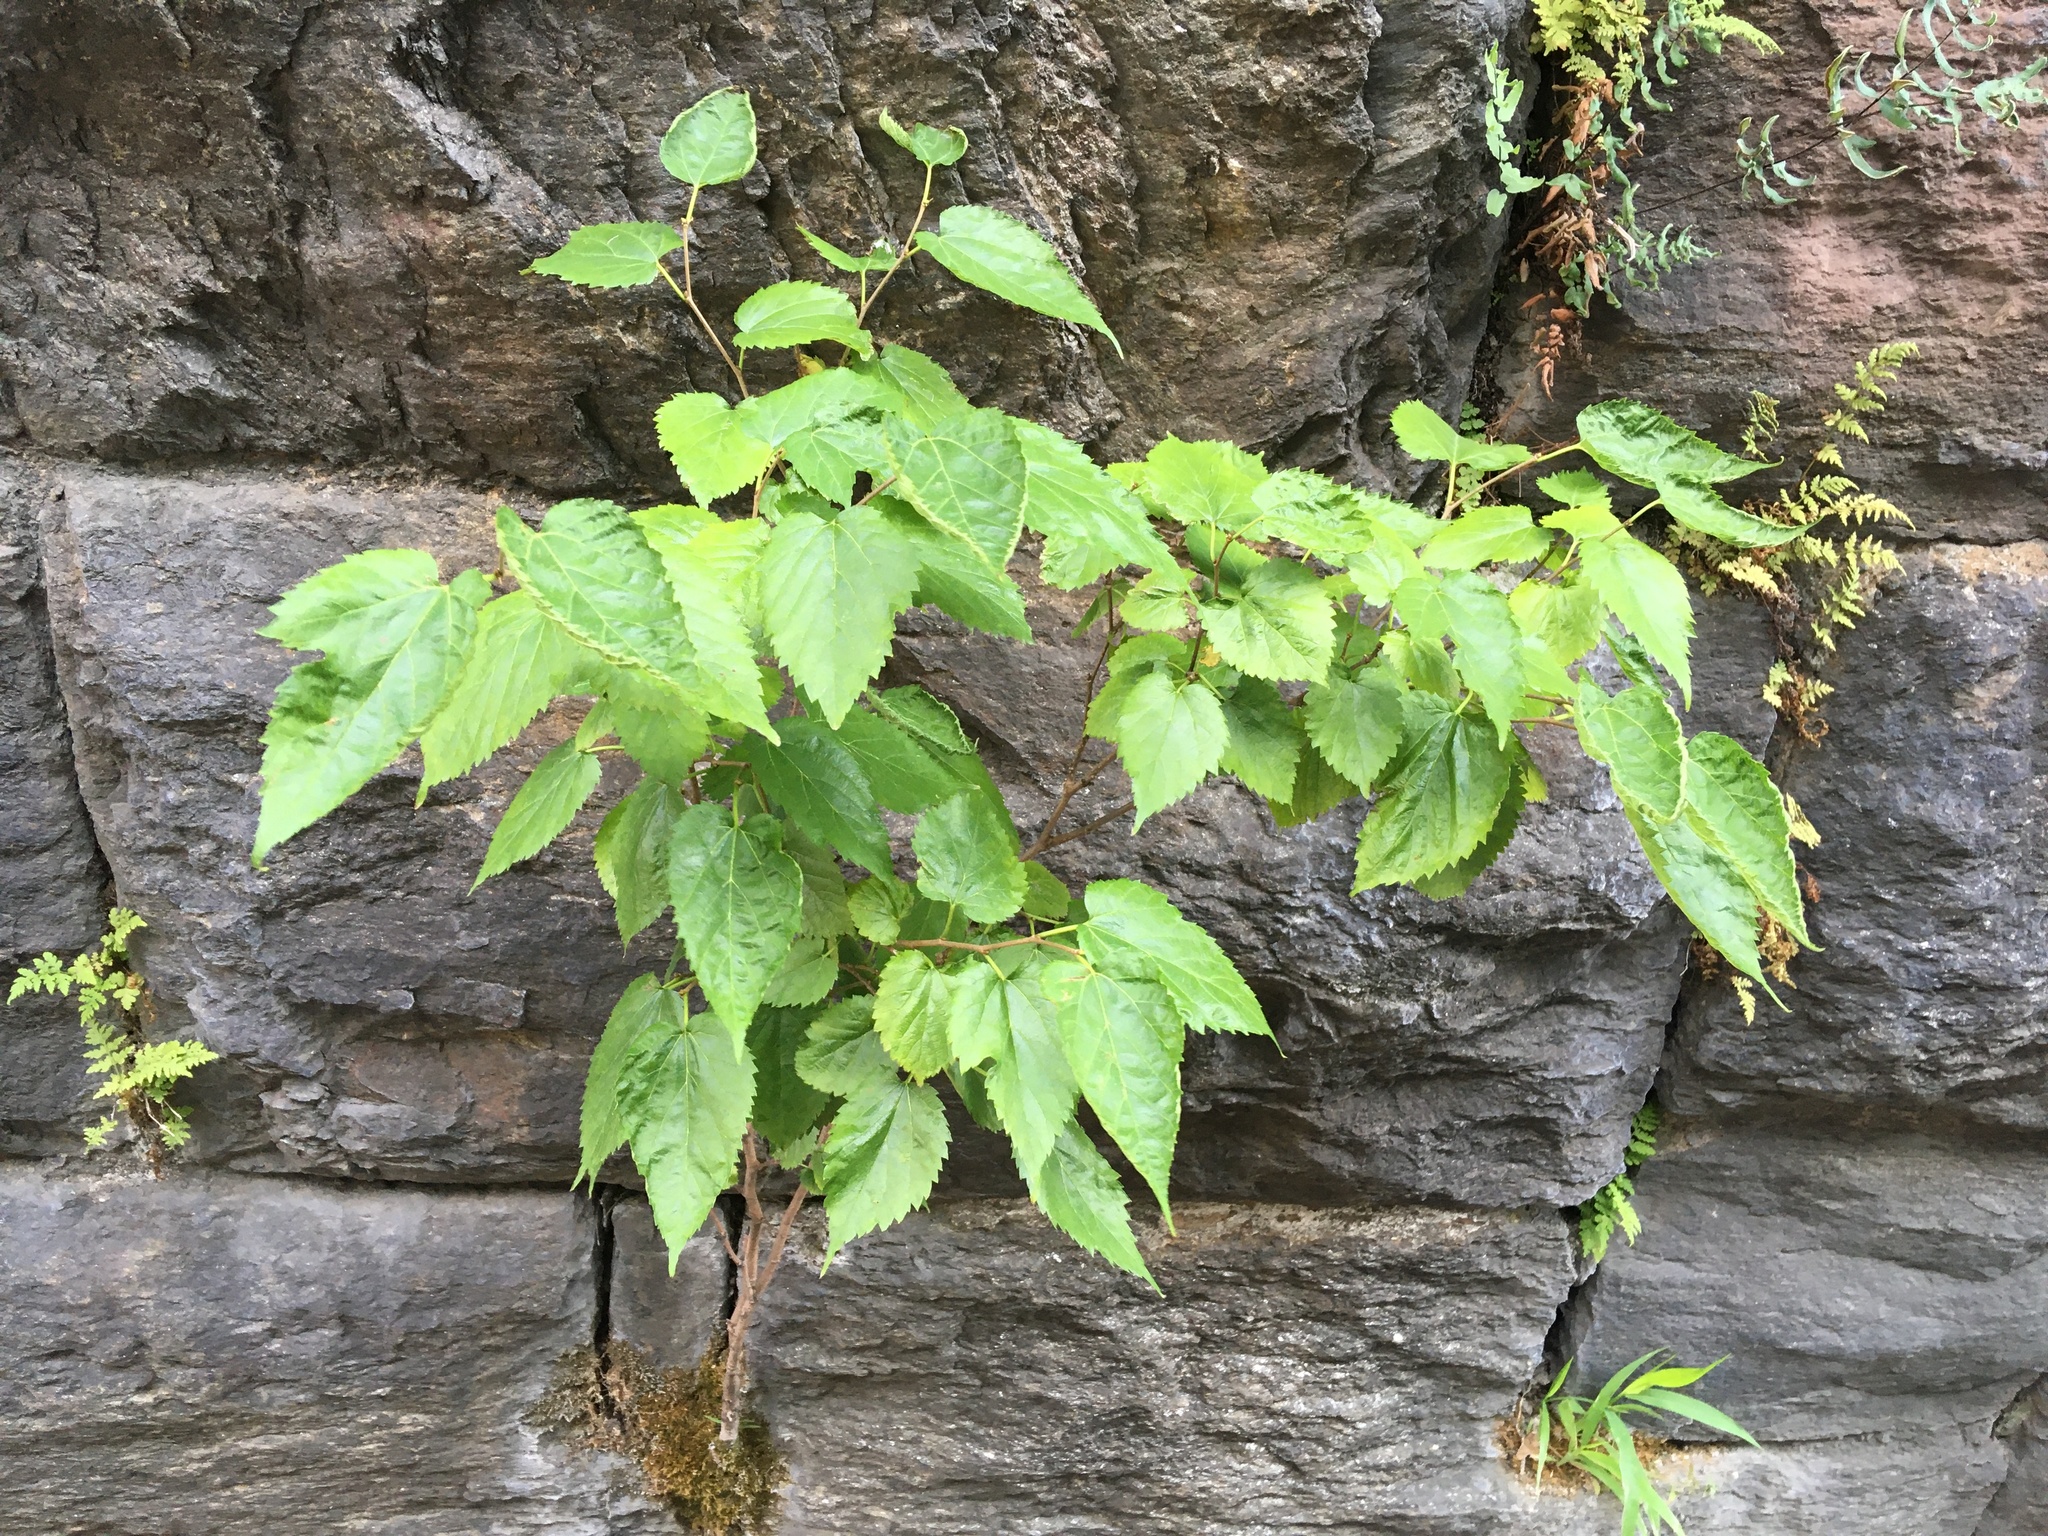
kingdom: Plantae
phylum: Tracheophyta
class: Magnoliopsida
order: Rosales
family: Moraceae
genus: Morus
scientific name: Morus alba
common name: White mulberry
